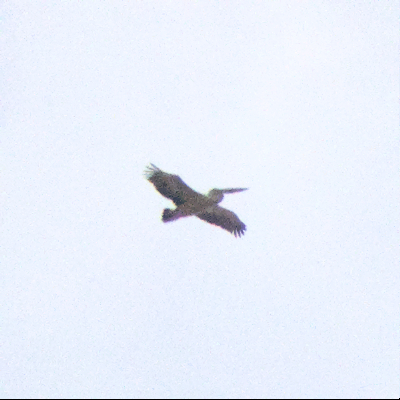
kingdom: Animalia
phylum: Chordata
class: Aves
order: Pelecaniformes
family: Pelecanidae
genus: Pelecanus
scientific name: Pelecanus conspicillatus
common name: Australian pelican
